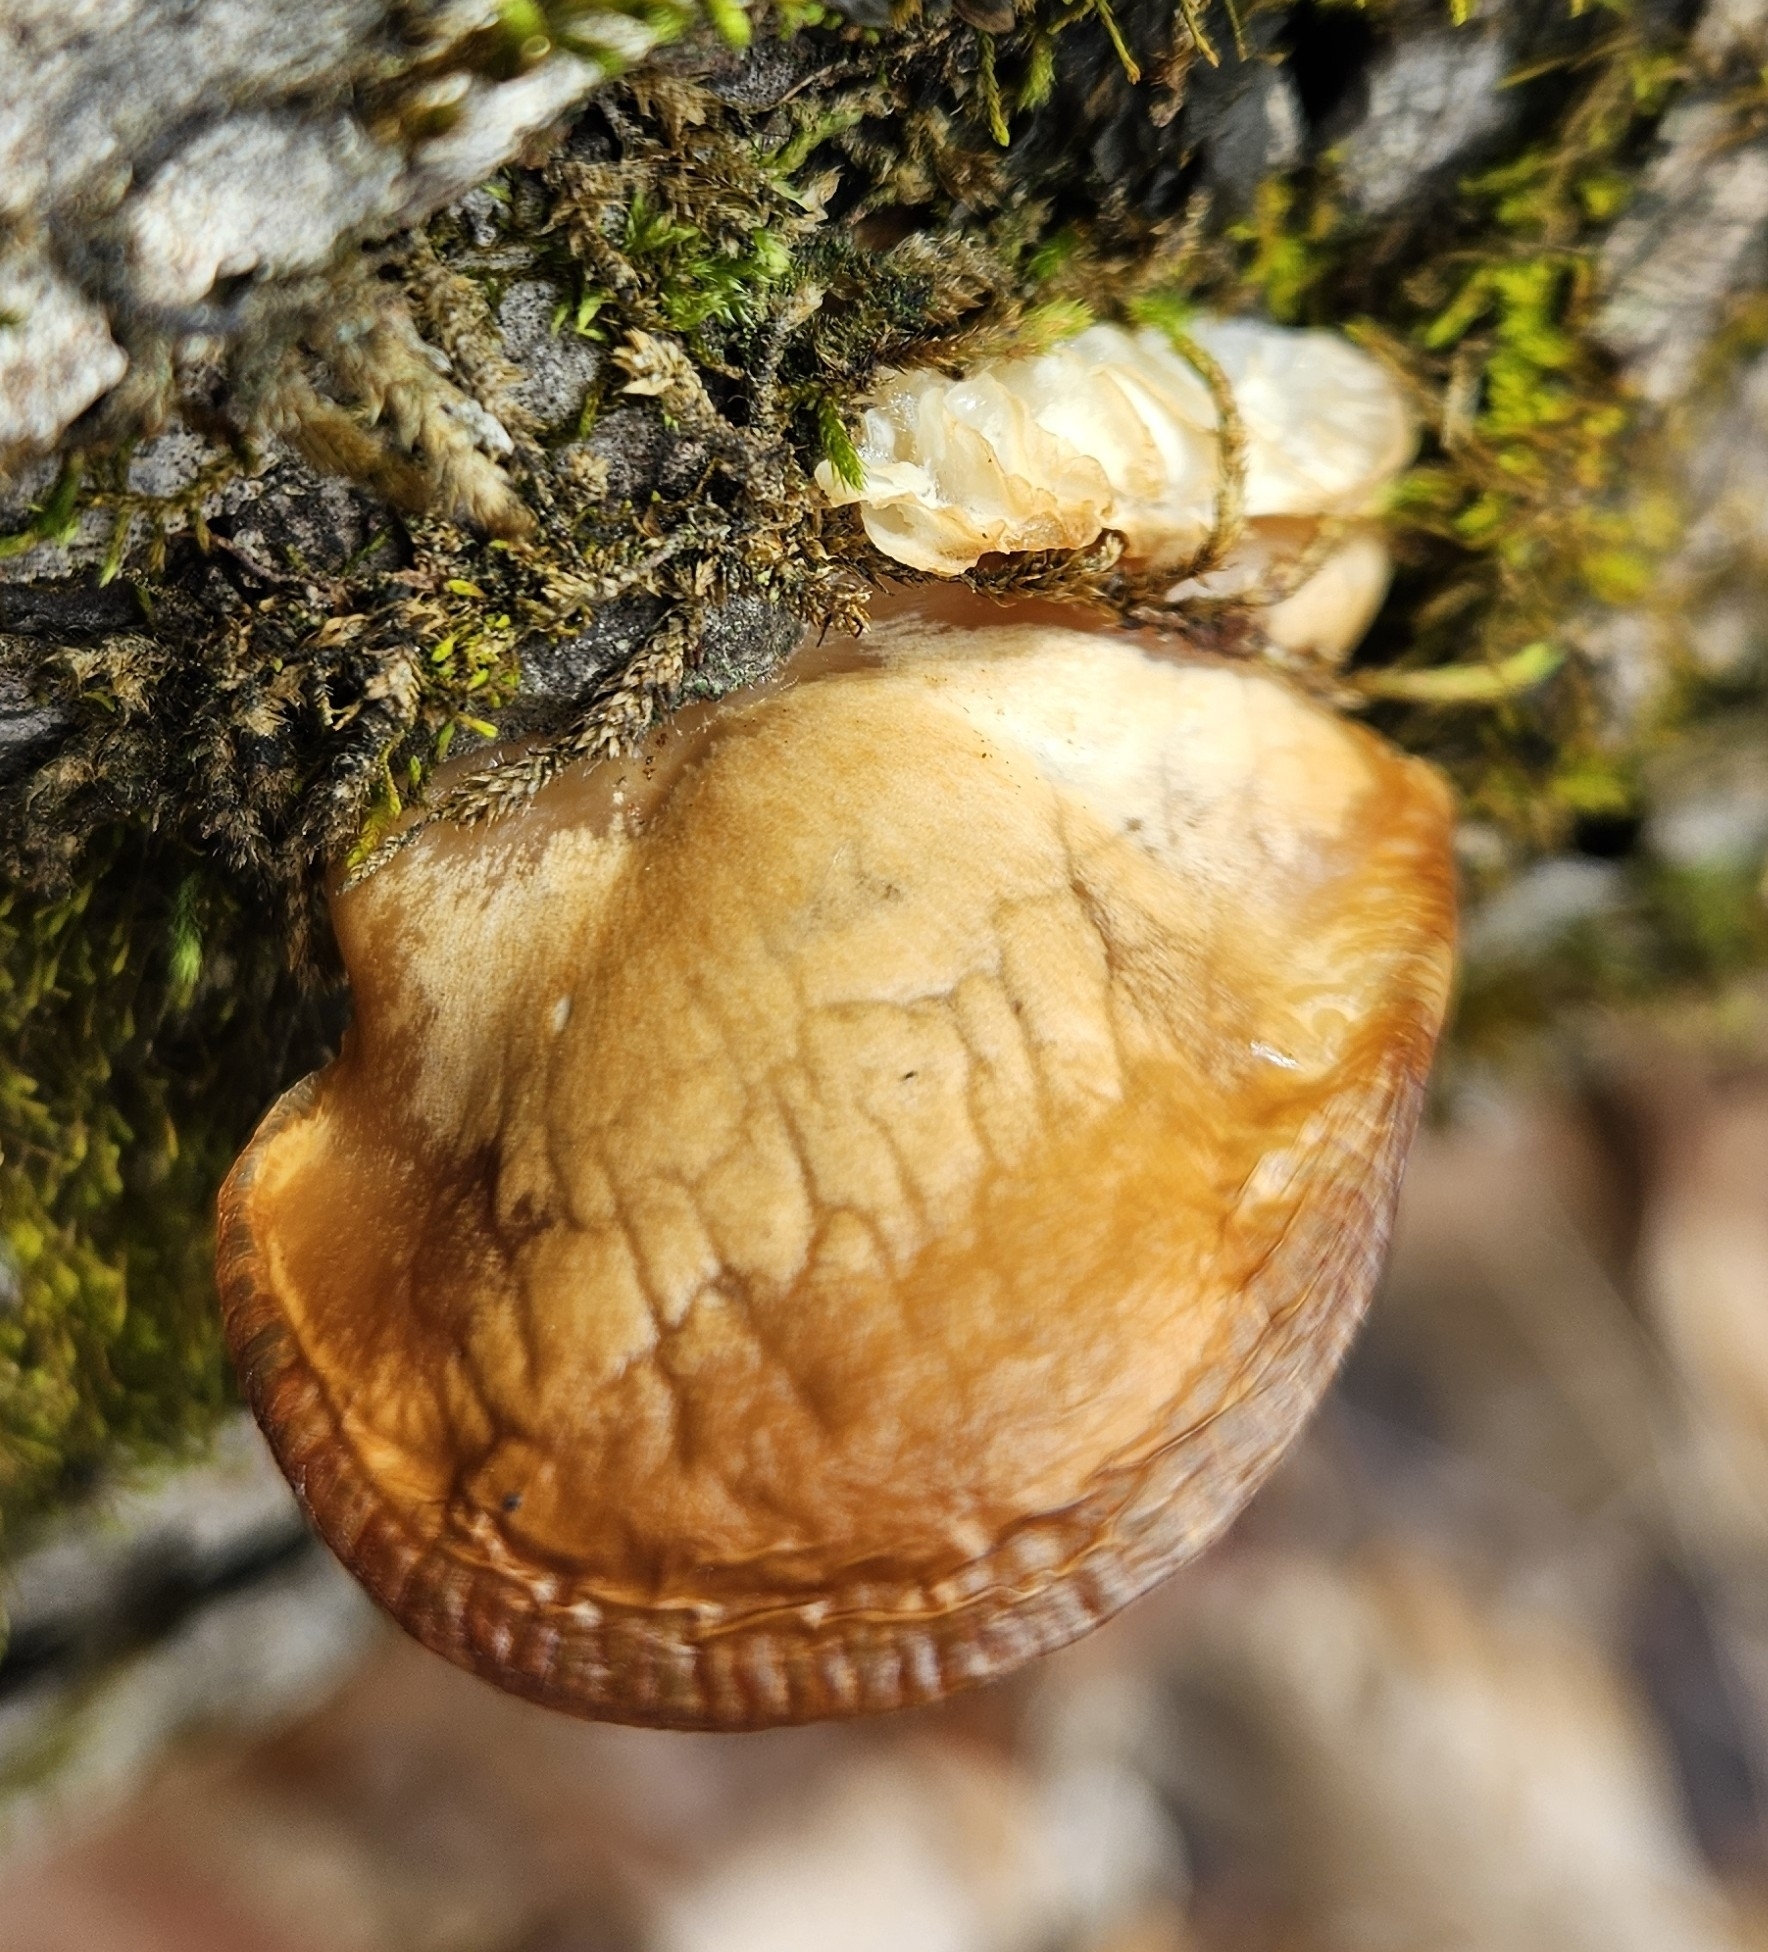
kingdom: Fungi
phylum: Basidiomycota
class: Agaricomycetes
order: Agaricales
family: Sarcomyxaceae
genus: Sarcomyxa
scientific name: Sarcomyxa serotina
